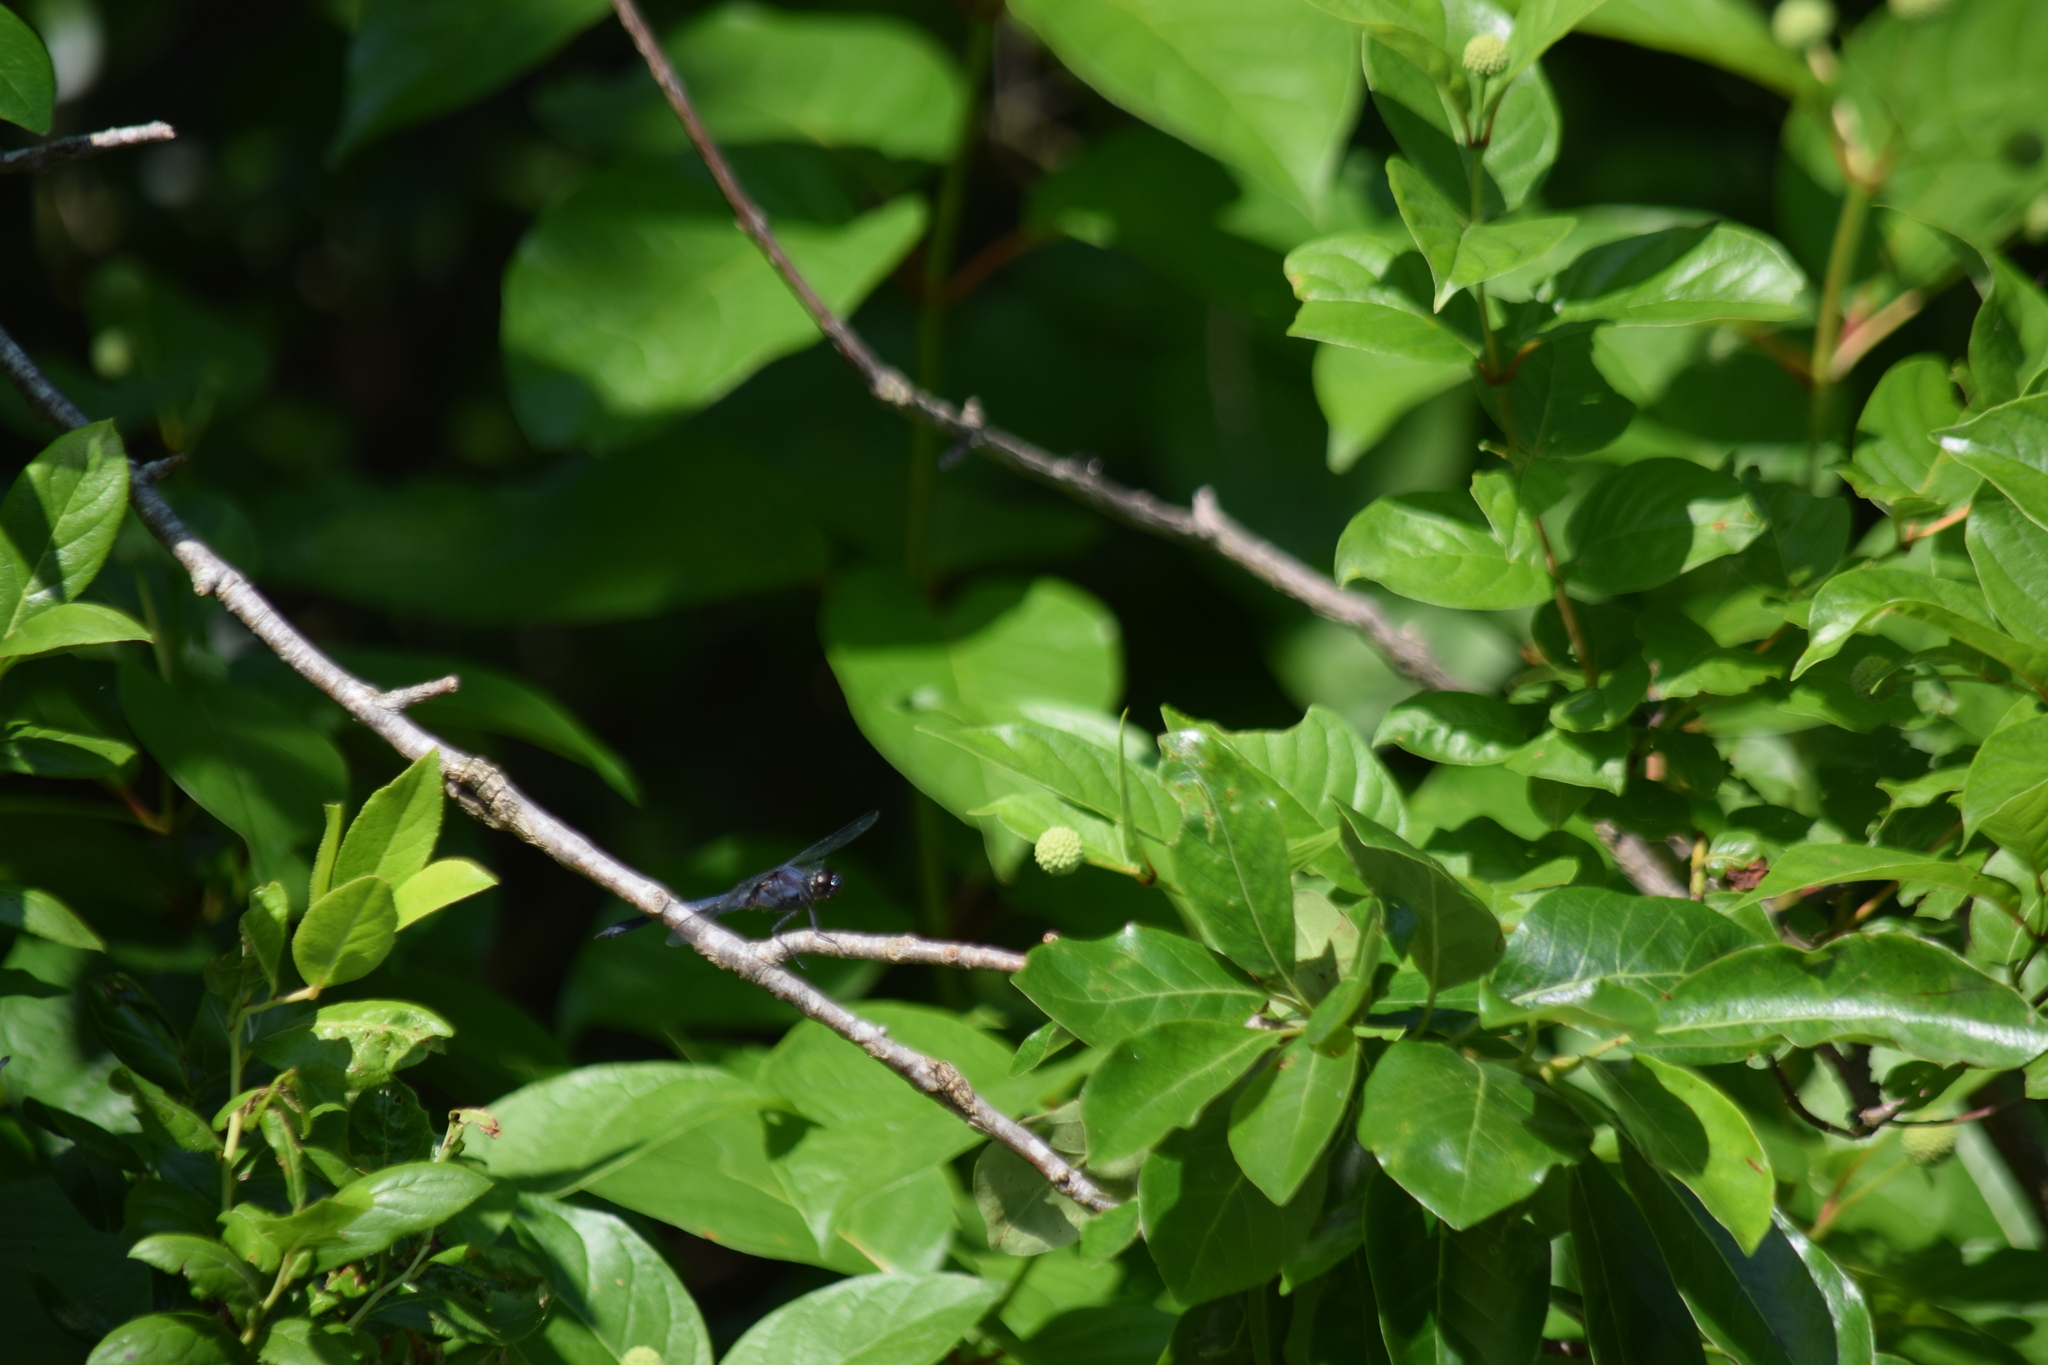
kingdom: Animalia
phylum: Arthropoda
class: Insecta
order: Odonata
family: Libellulidae
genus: Libellula
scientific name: Libellula incesta
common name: Slaty skimmer
